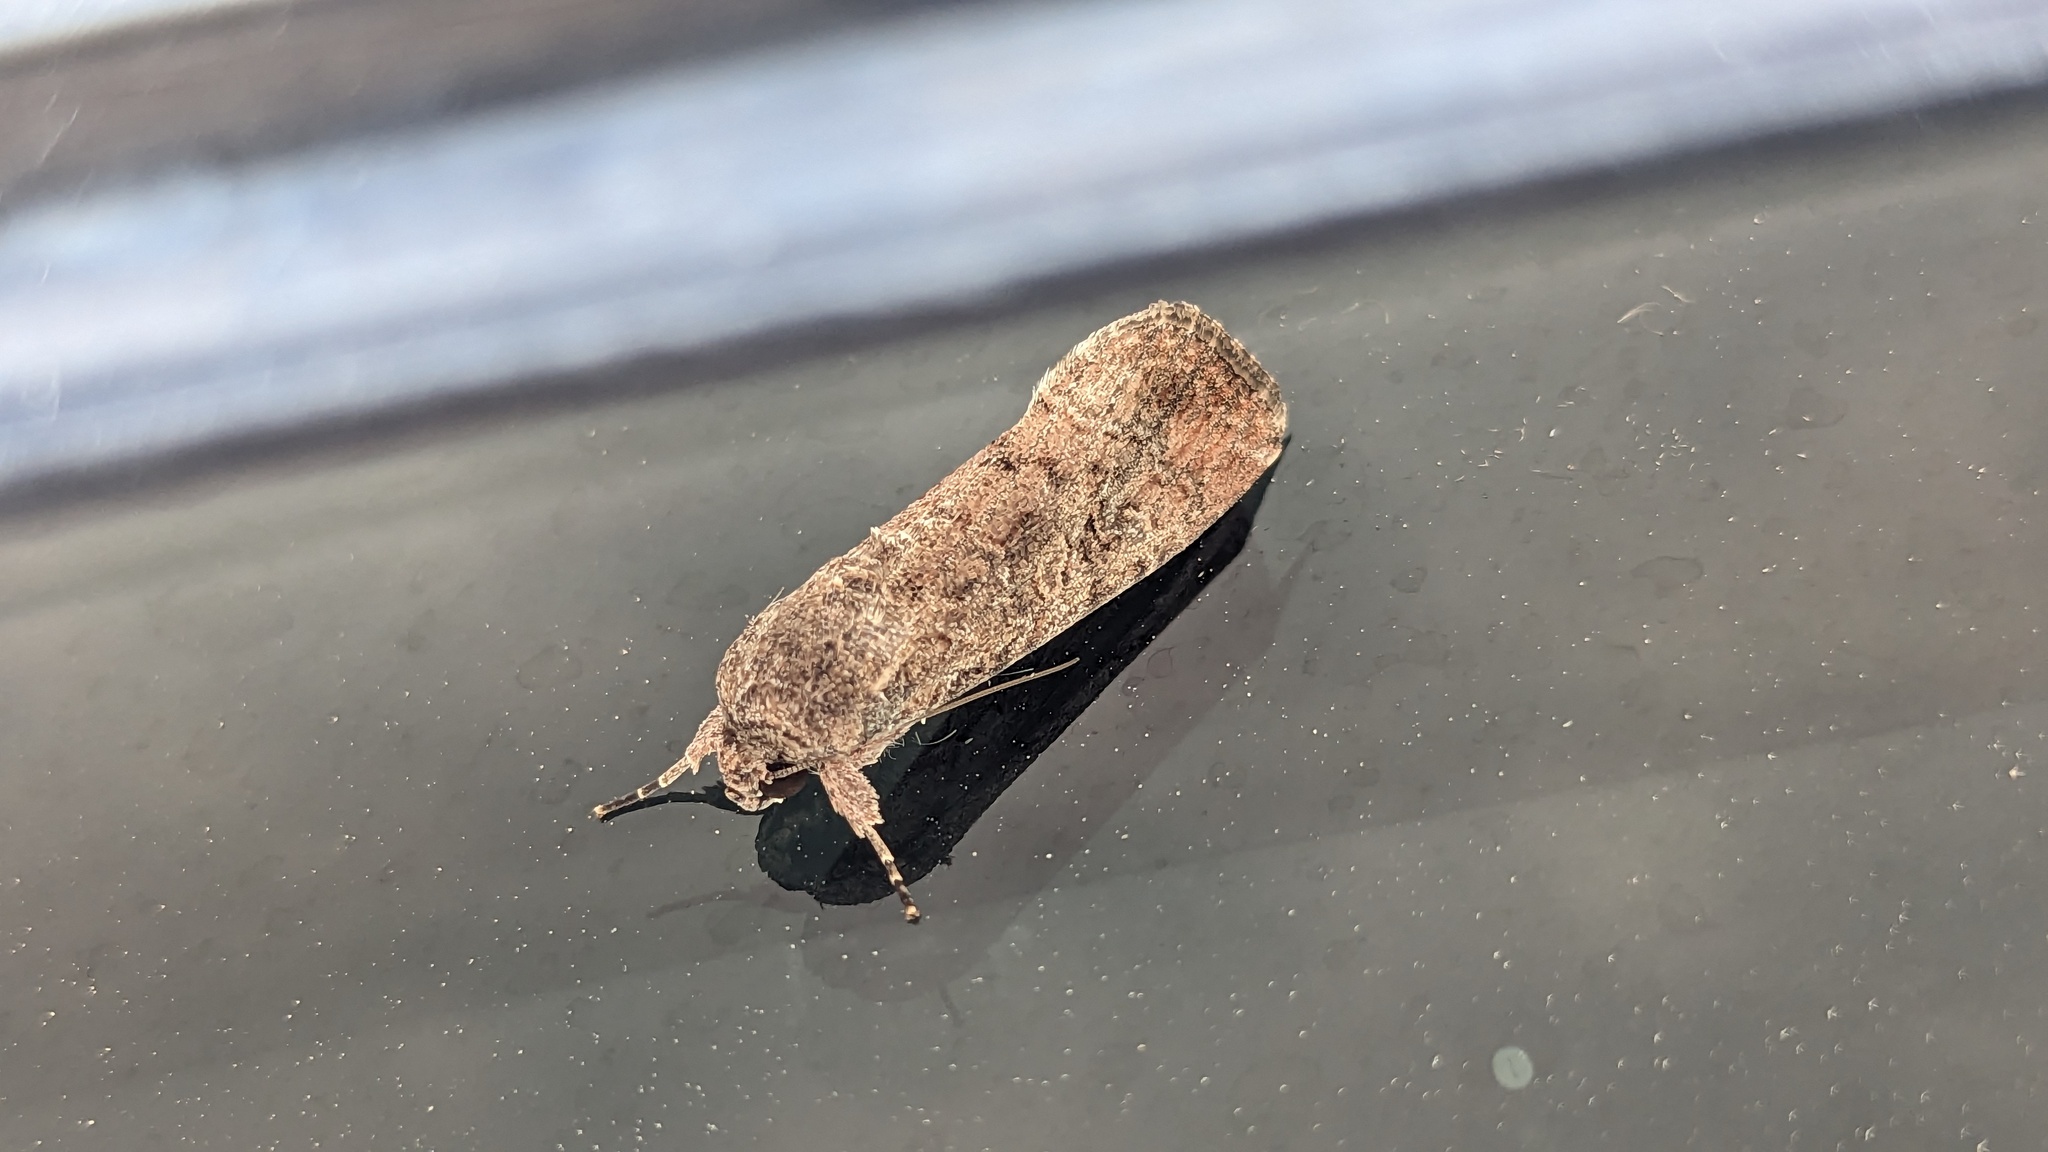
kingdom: Animalia
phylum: Arthropoda
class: Insecta
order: Lepidoptera
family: Noctuidae
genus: Spodoptera
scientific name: Spodoptera frugiperda
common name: Fall armyworm
